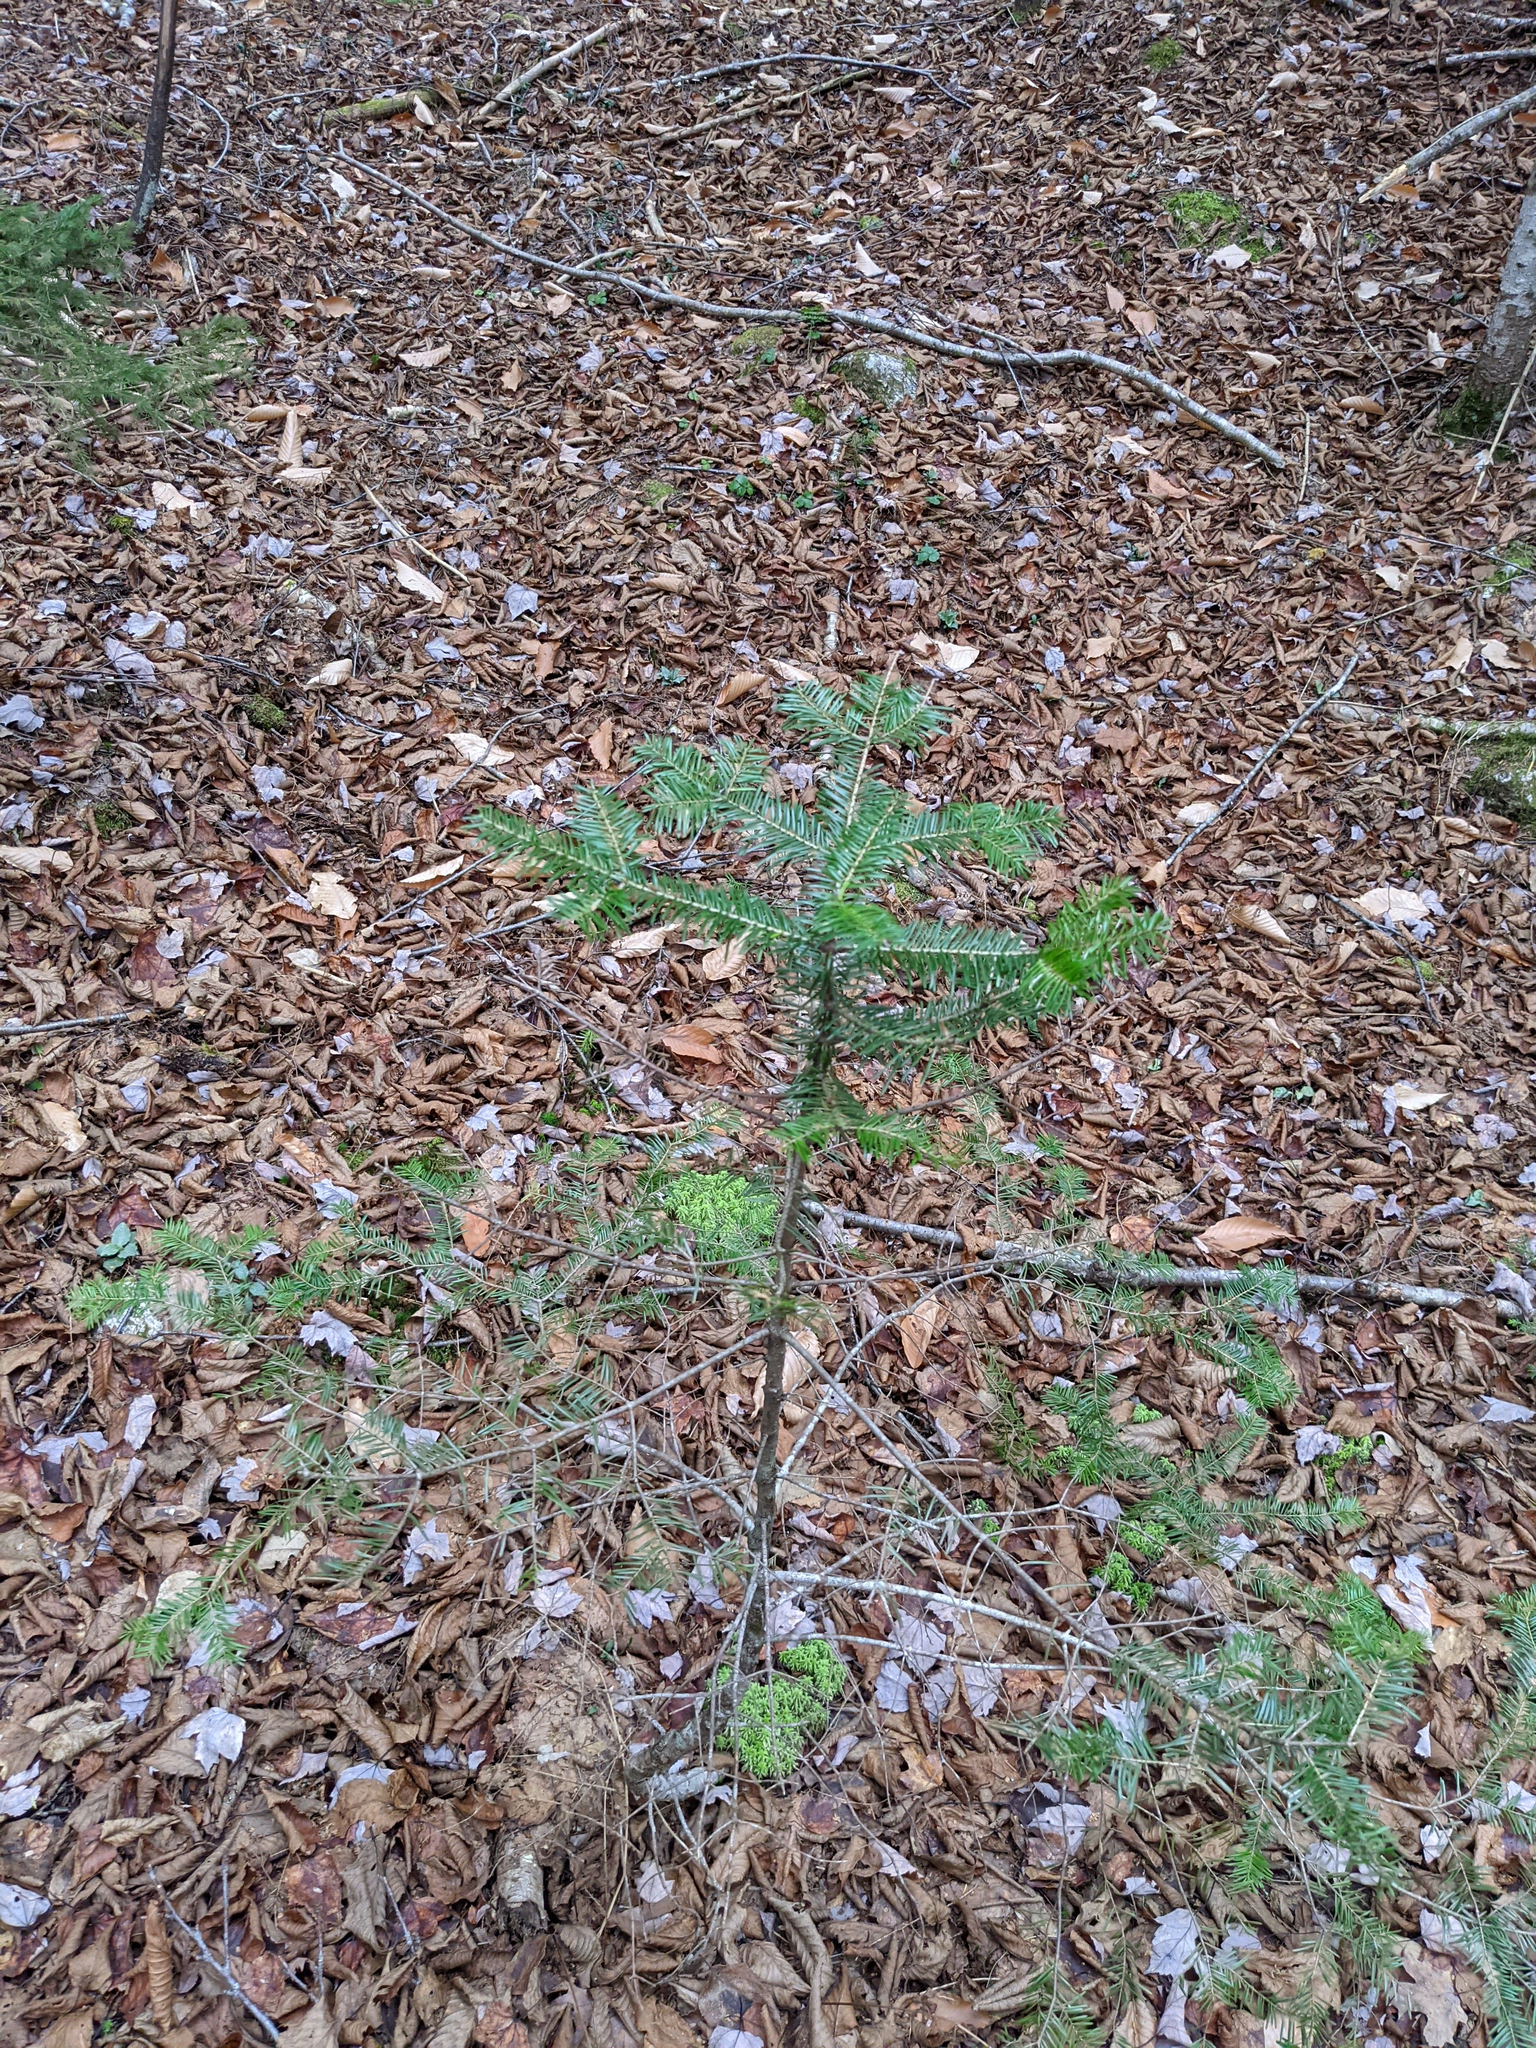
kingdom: Plantae
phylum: Tracheophyta
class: Pinopsida
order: Pinales
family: Pinaceae
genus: Abies
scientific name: Abies balsamea
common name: Balsam fir
